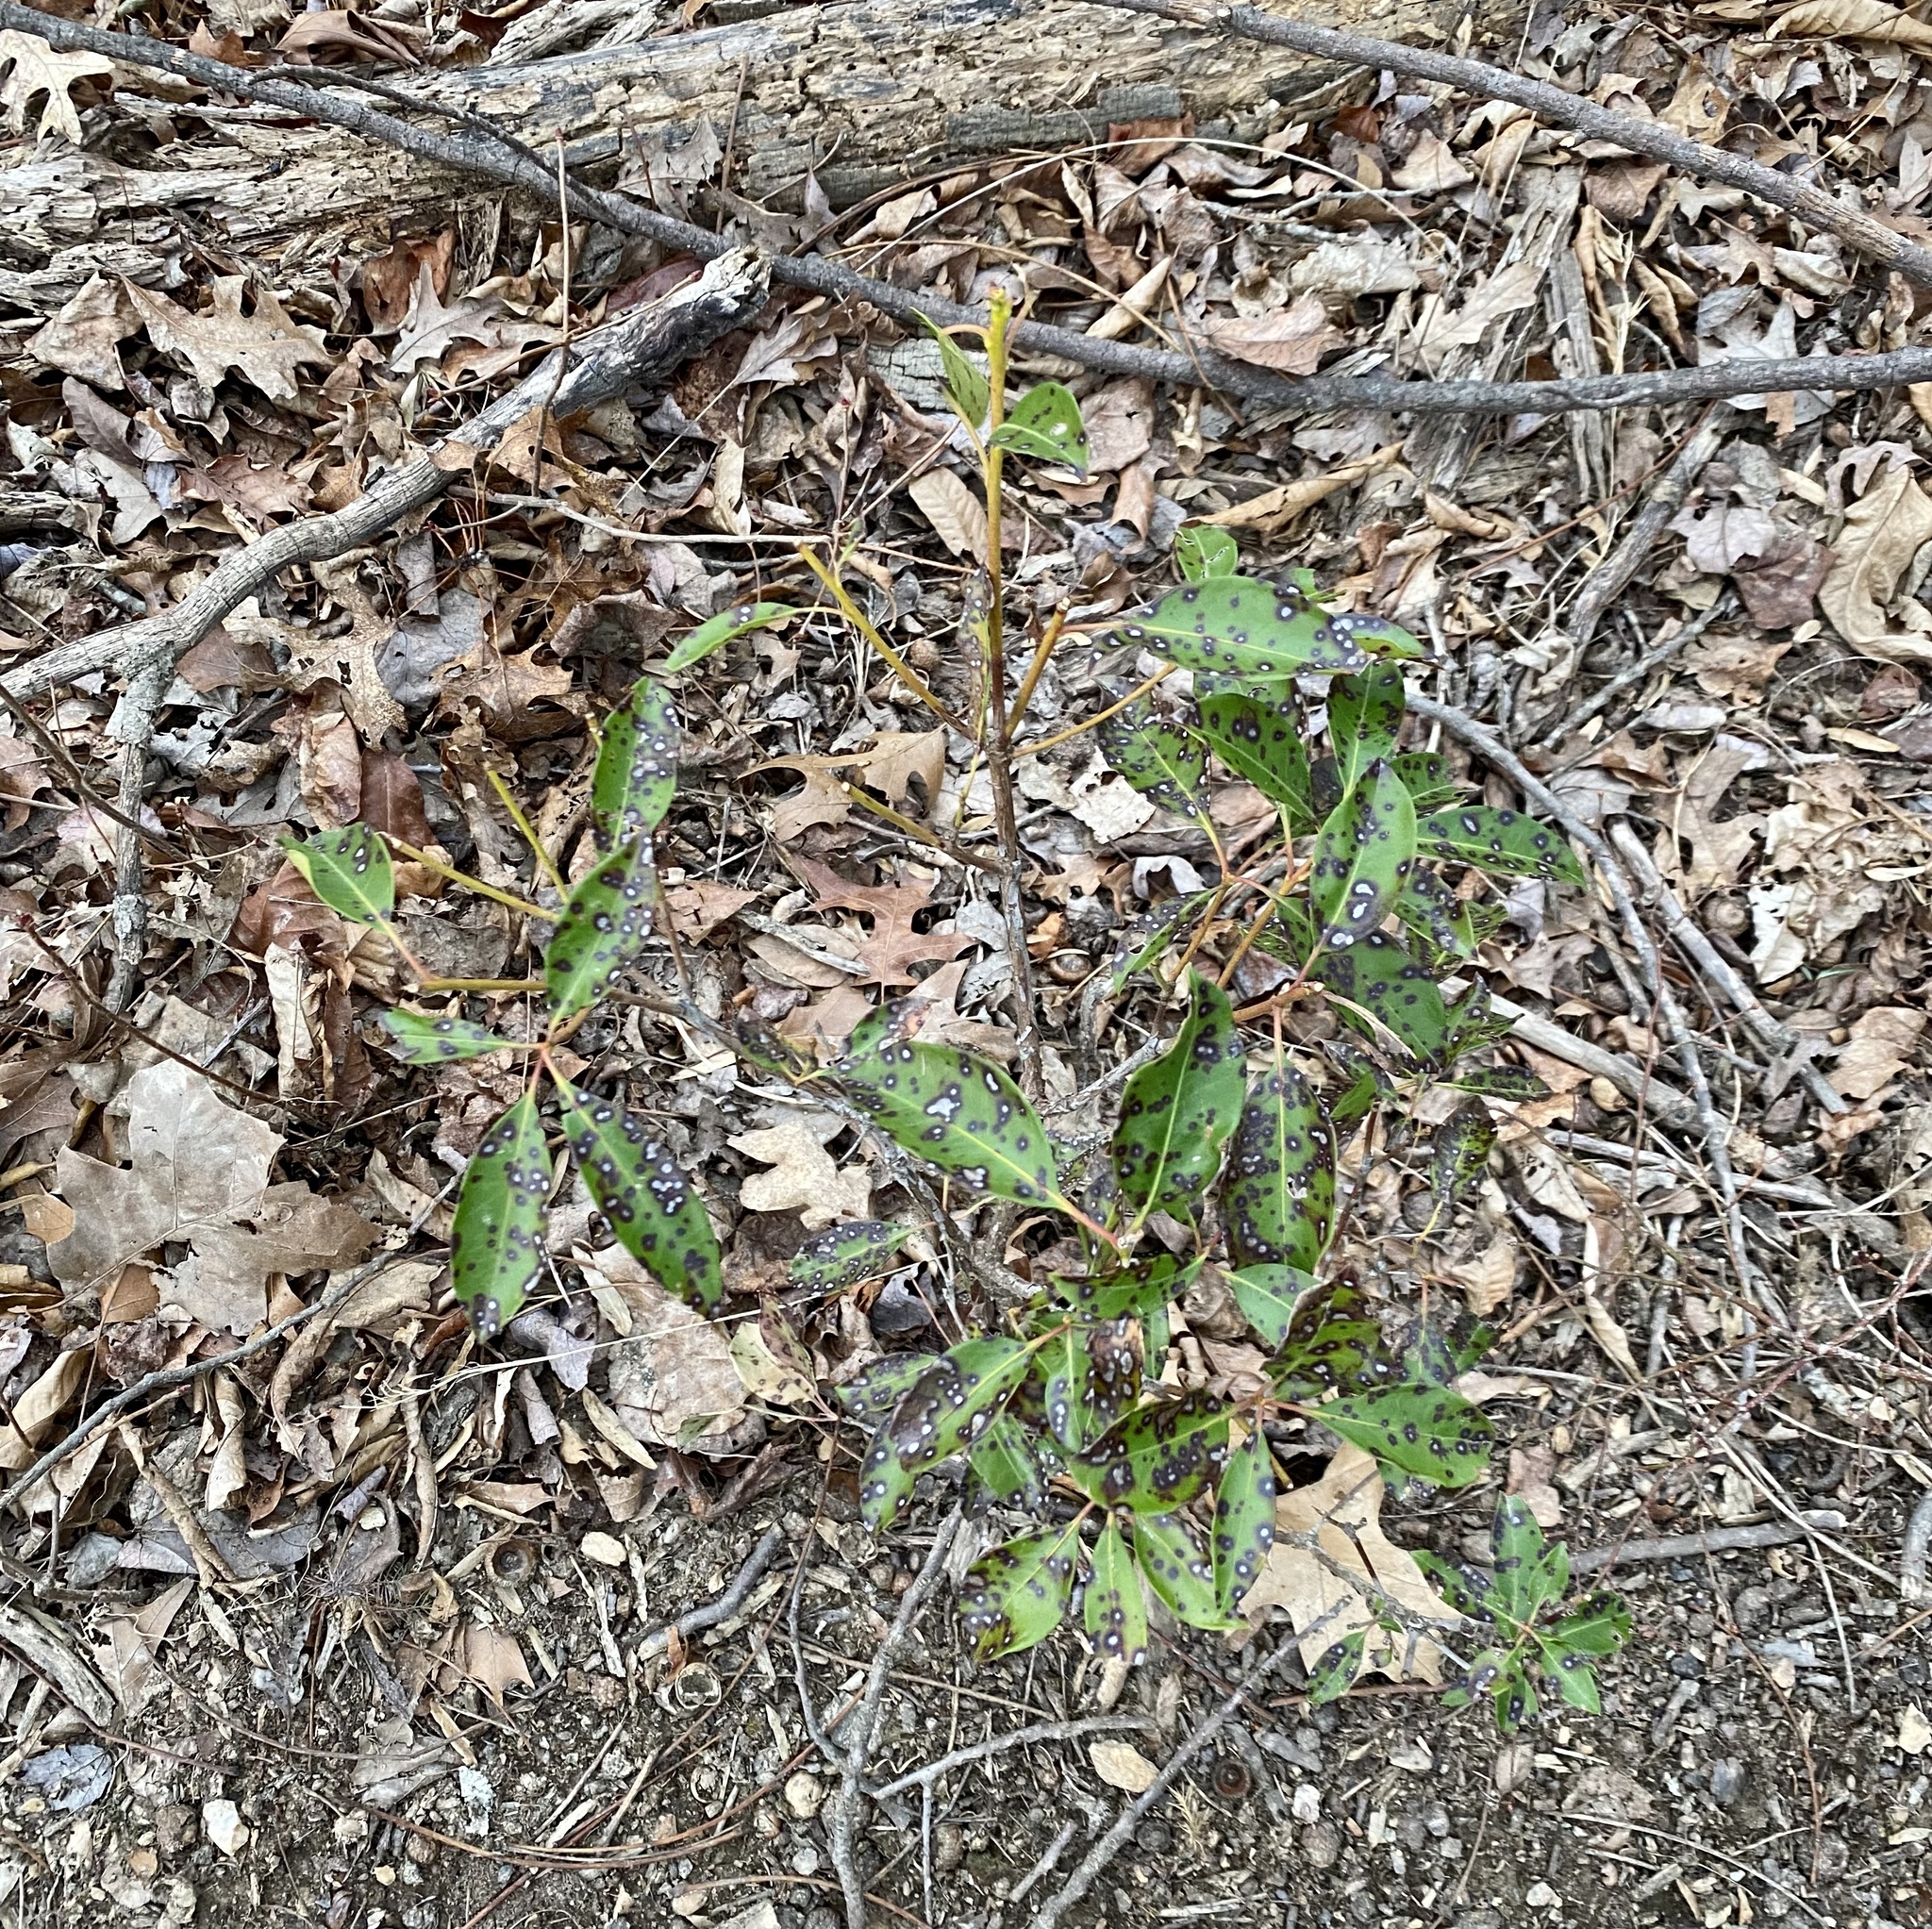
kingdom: Plantae
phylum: Tracheophyta
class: Magnoliopsida
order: Ericales
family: Ericaceae
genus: Kalmia
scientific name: Kalmia latifolia
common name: Mountain-laurel
